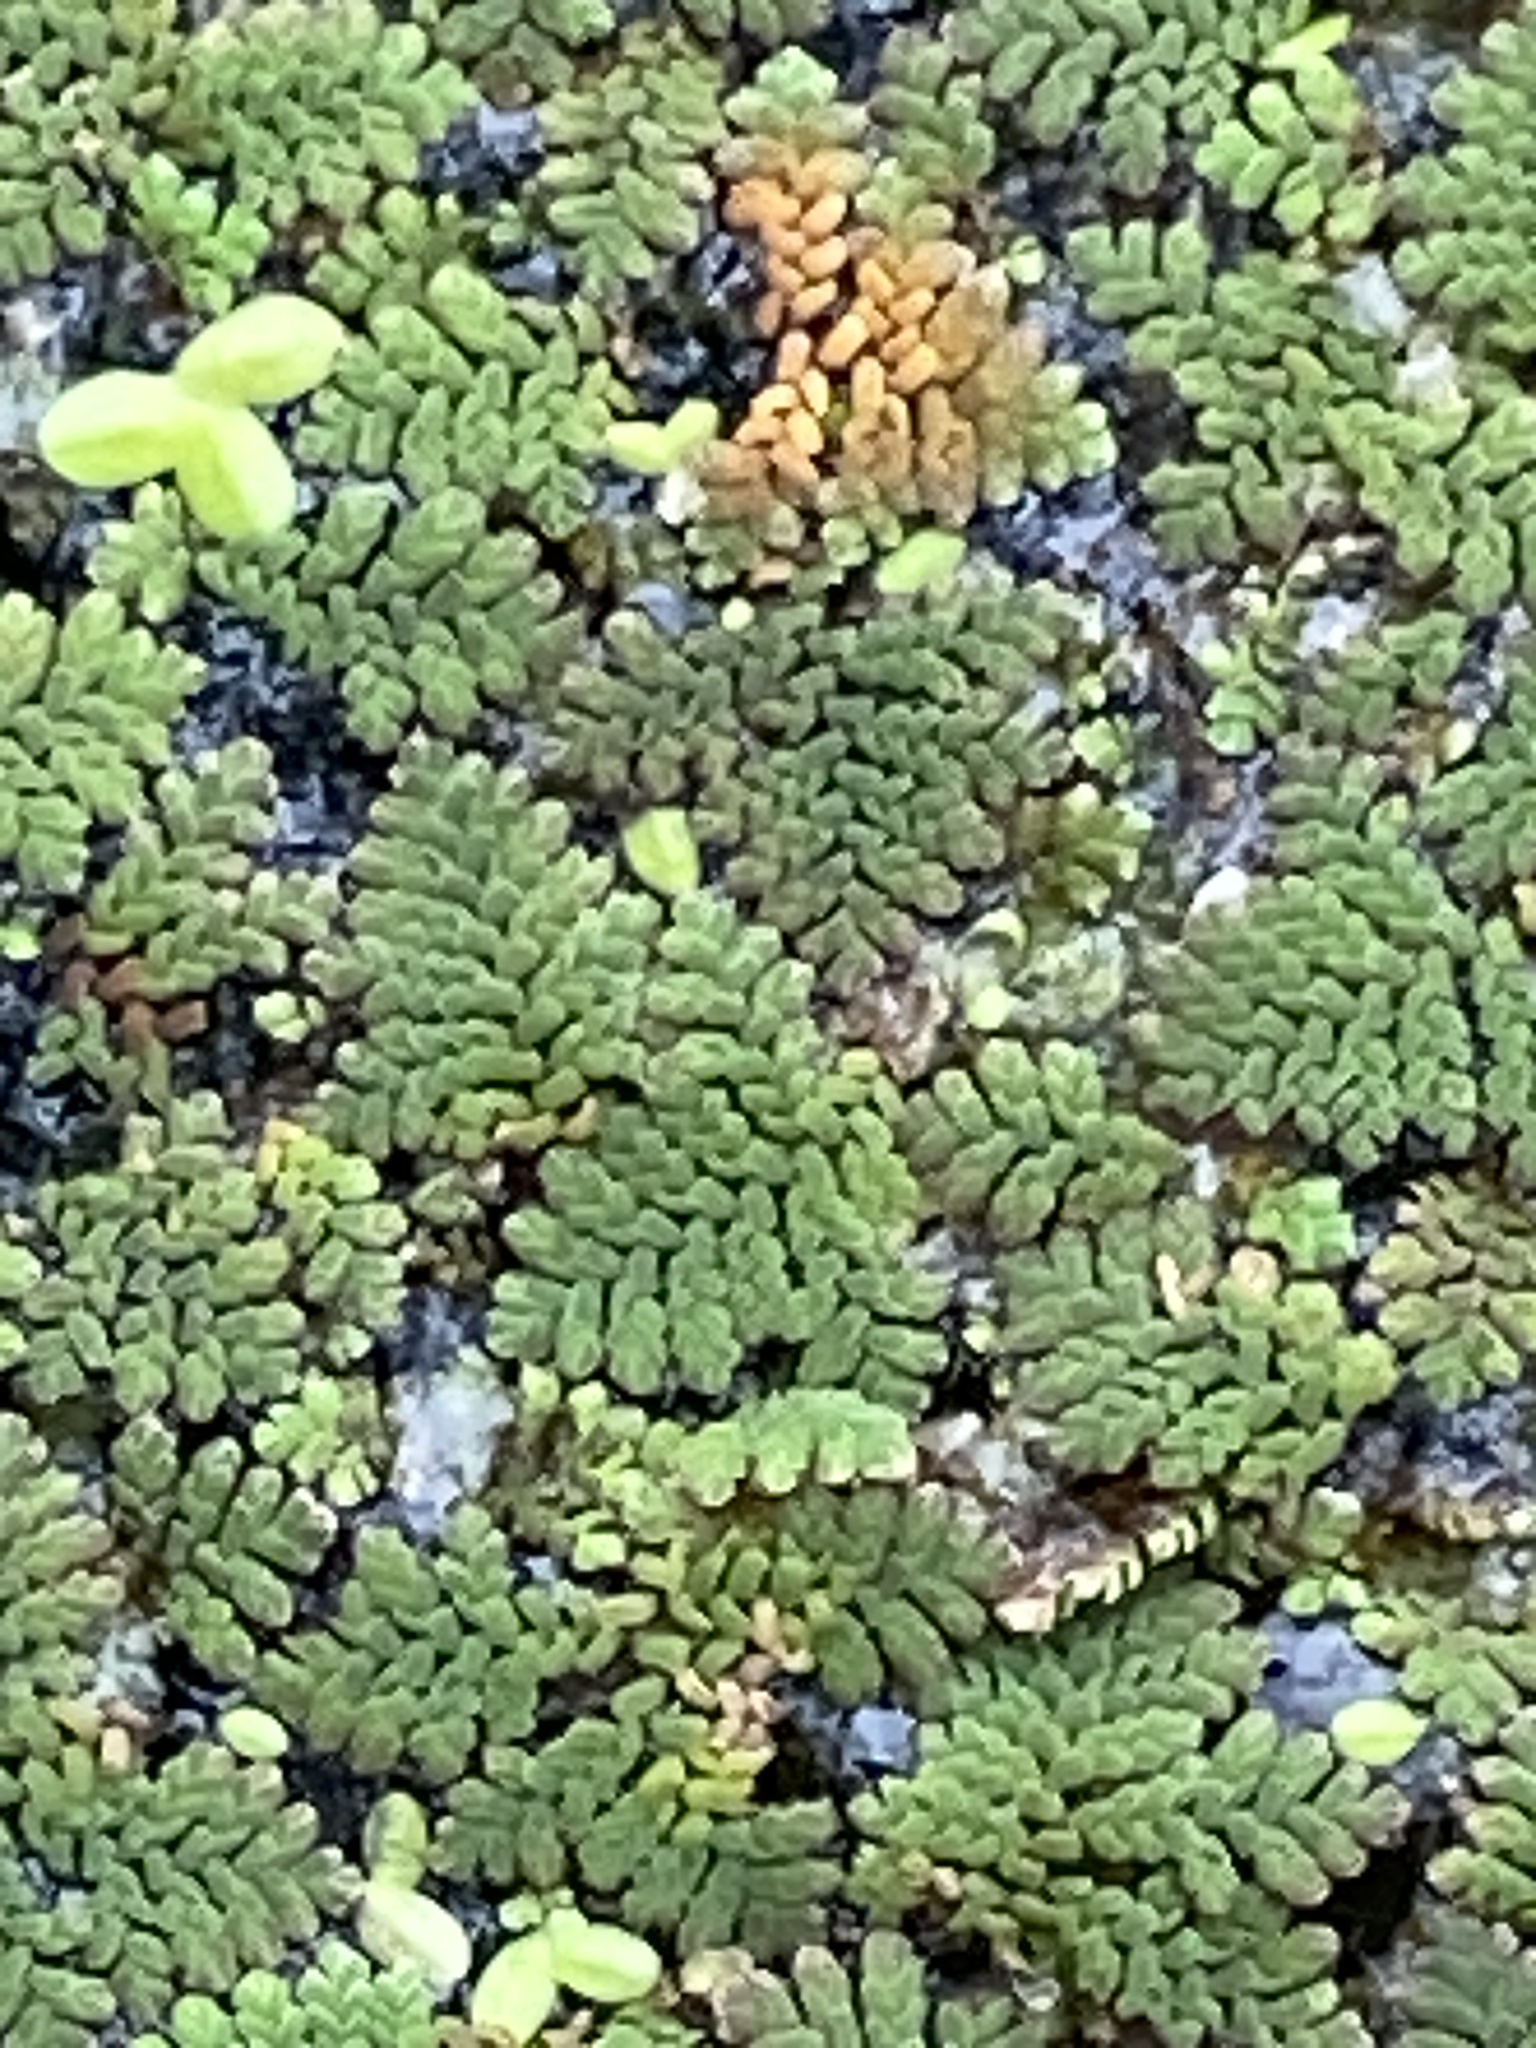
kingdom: Plantae
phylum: Tracheophyta
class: Polypodiopsida
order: Salviniales
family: Salviniaceae
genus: Azolla
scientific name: Azolla pinnata
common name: Ferny azolla
